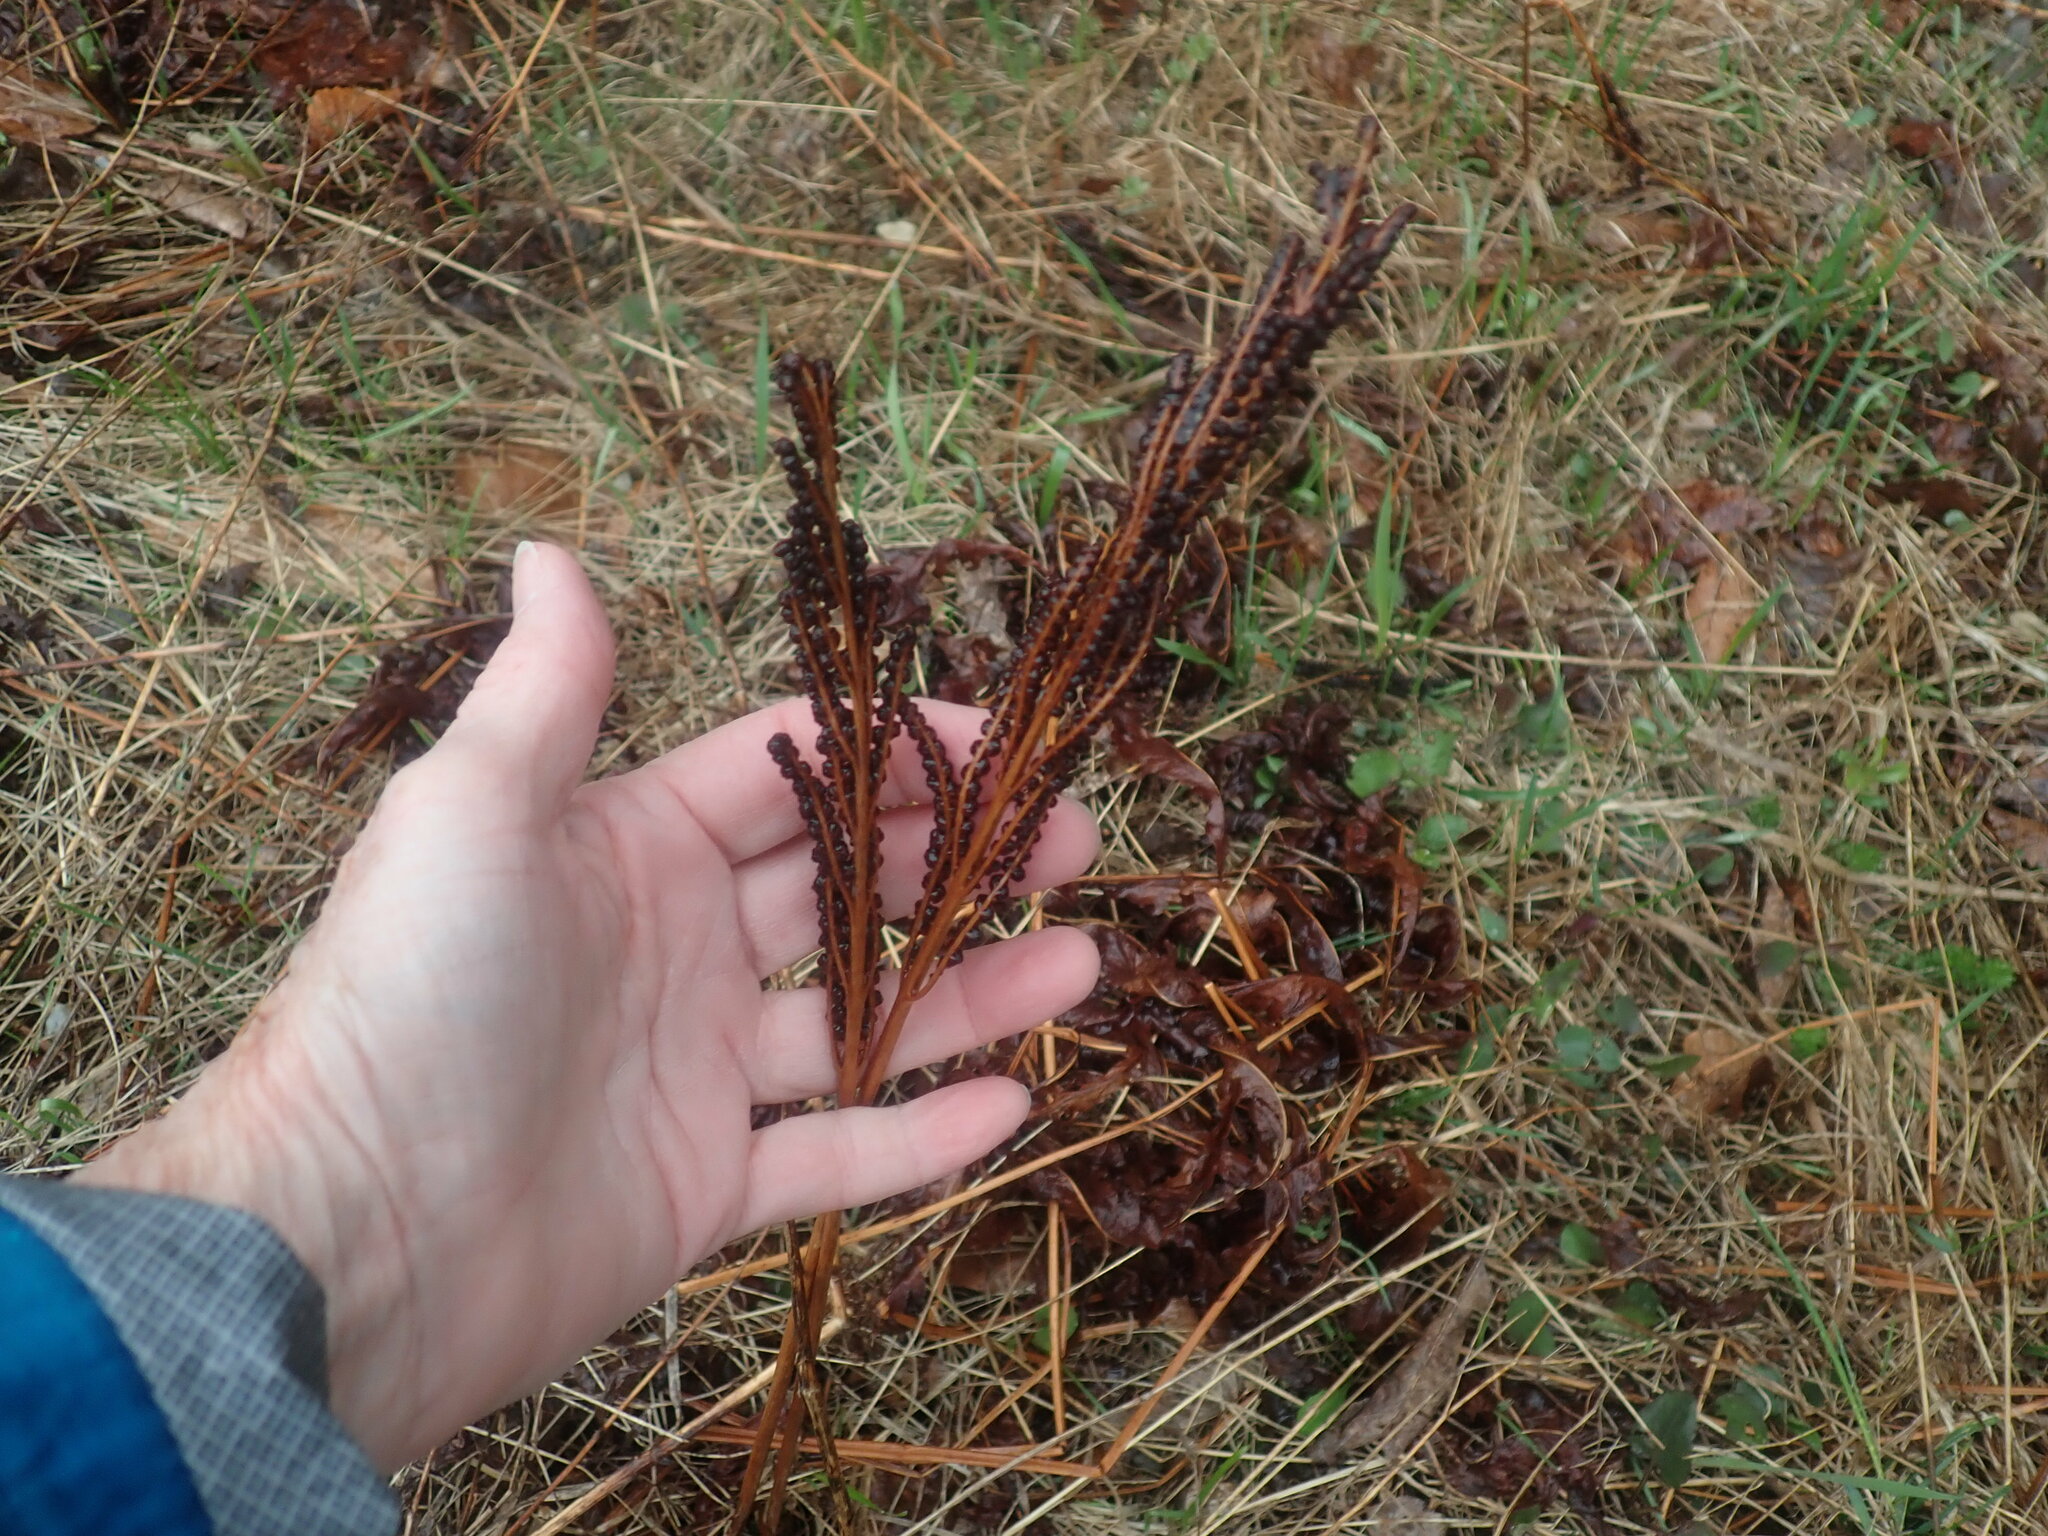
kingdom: Plantae
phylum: Tracheophyta
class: Polypodiopsida
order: Polypodiales
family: Onocleaceae
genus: Onoclea
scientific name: Onoclea sensibilis
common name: Sensitive fern
